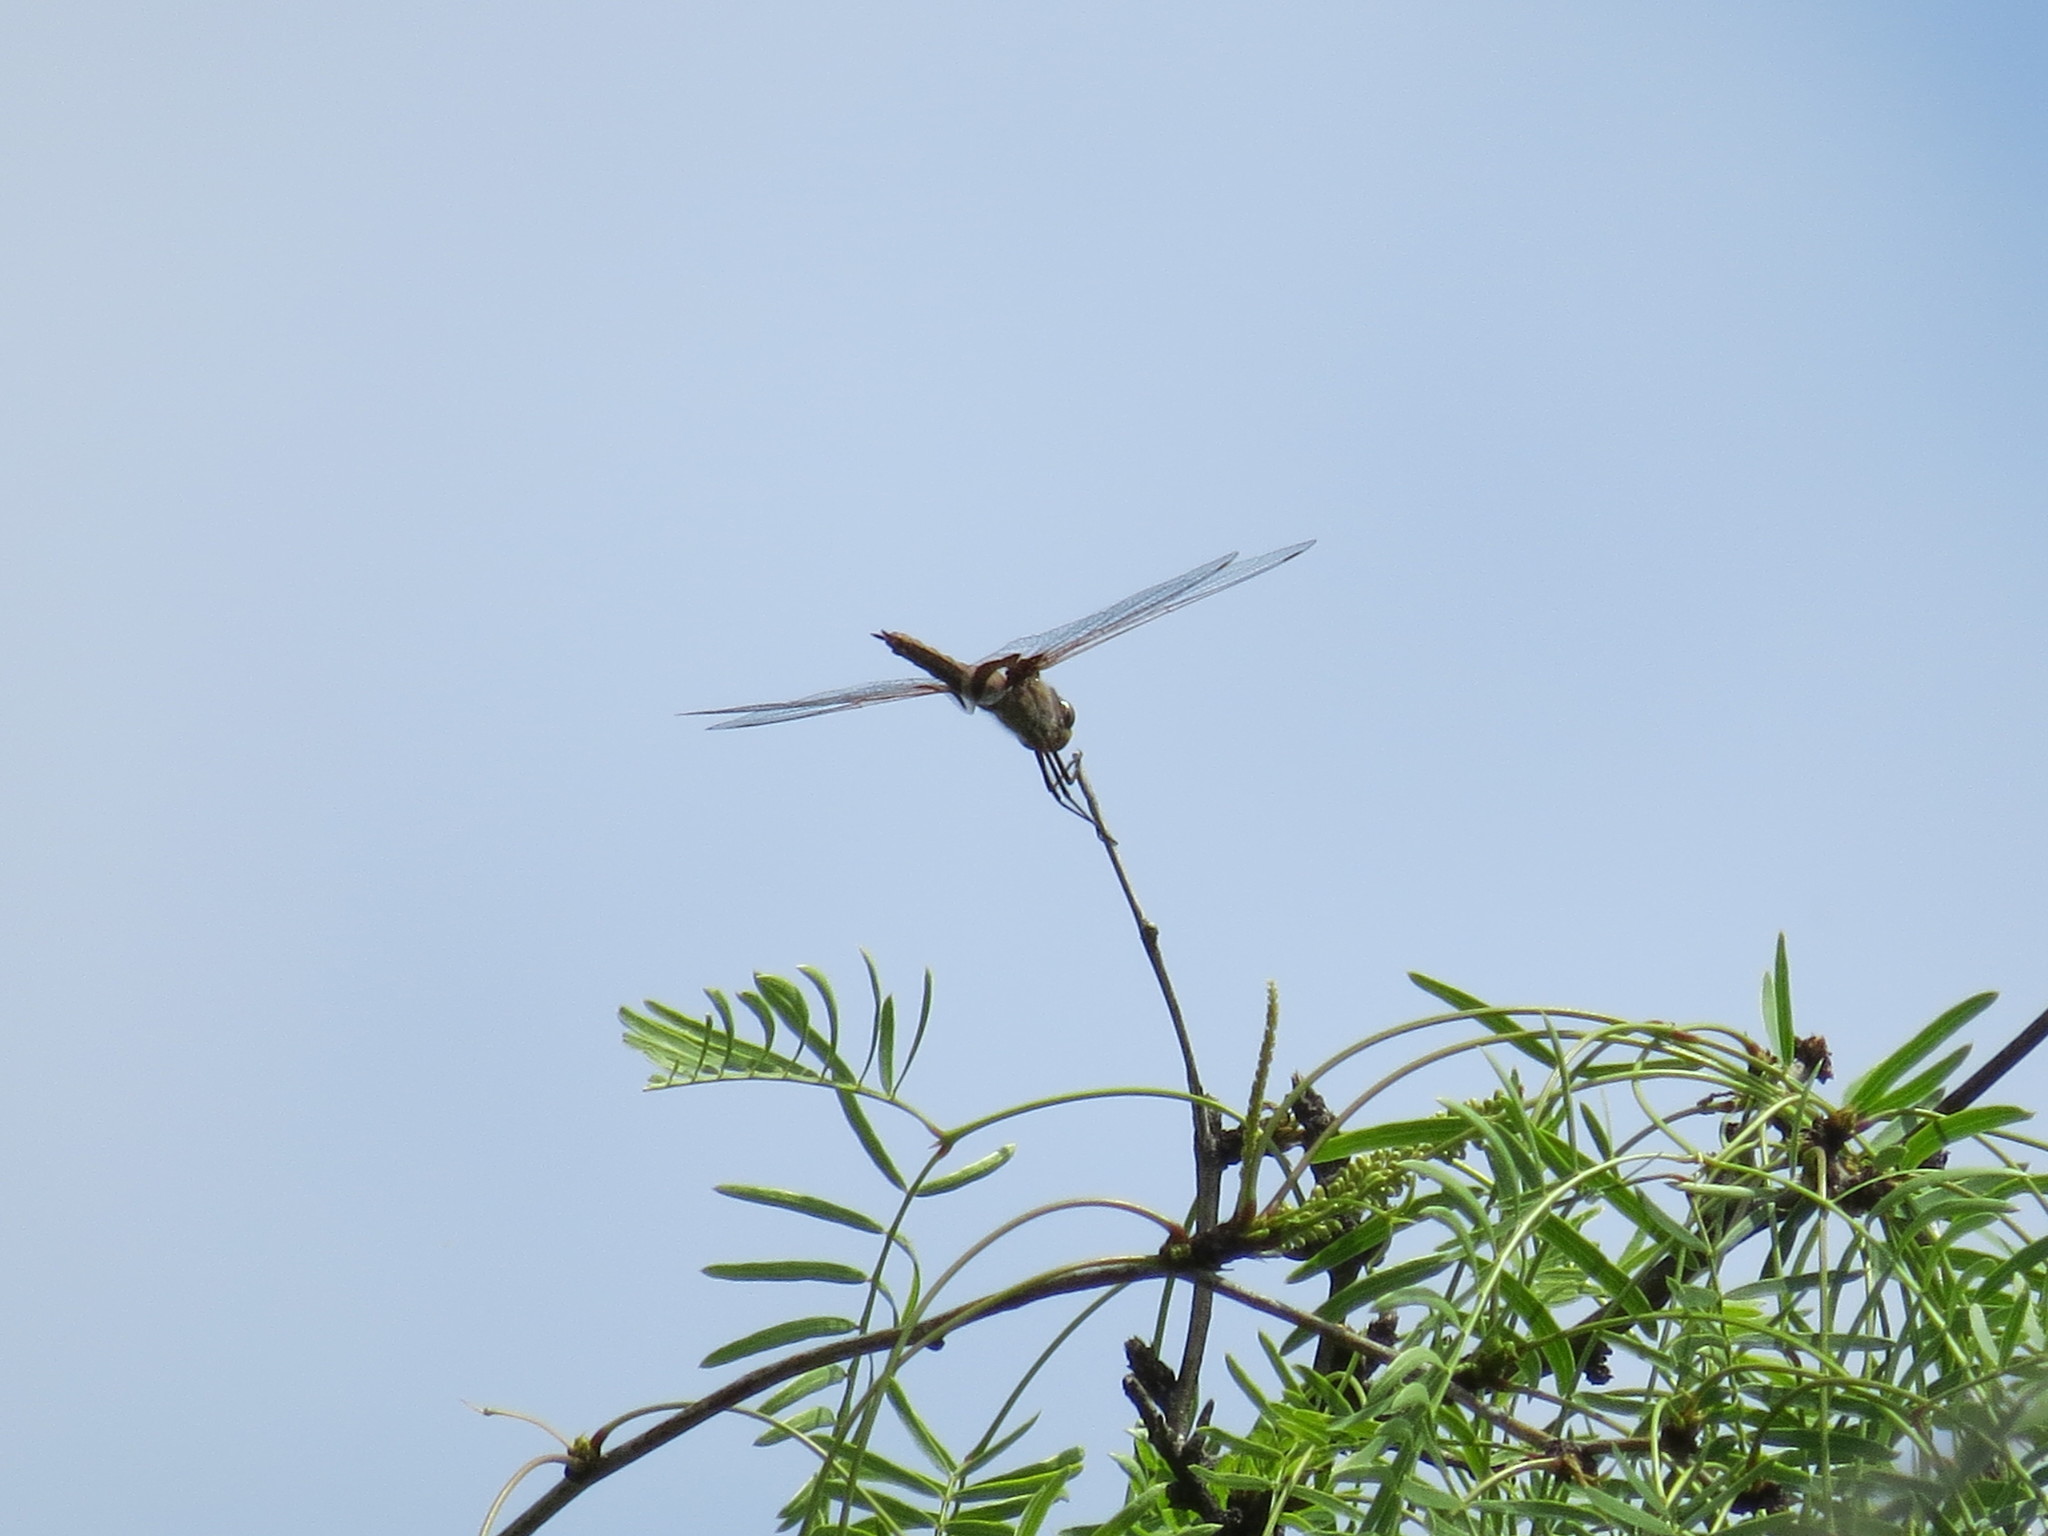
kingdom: Animalia
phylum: Arthropoda
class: Insecta
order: Odonata
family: Libellulidae
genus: Tramea
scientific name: Tramea onusta
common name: Red saddlebags
